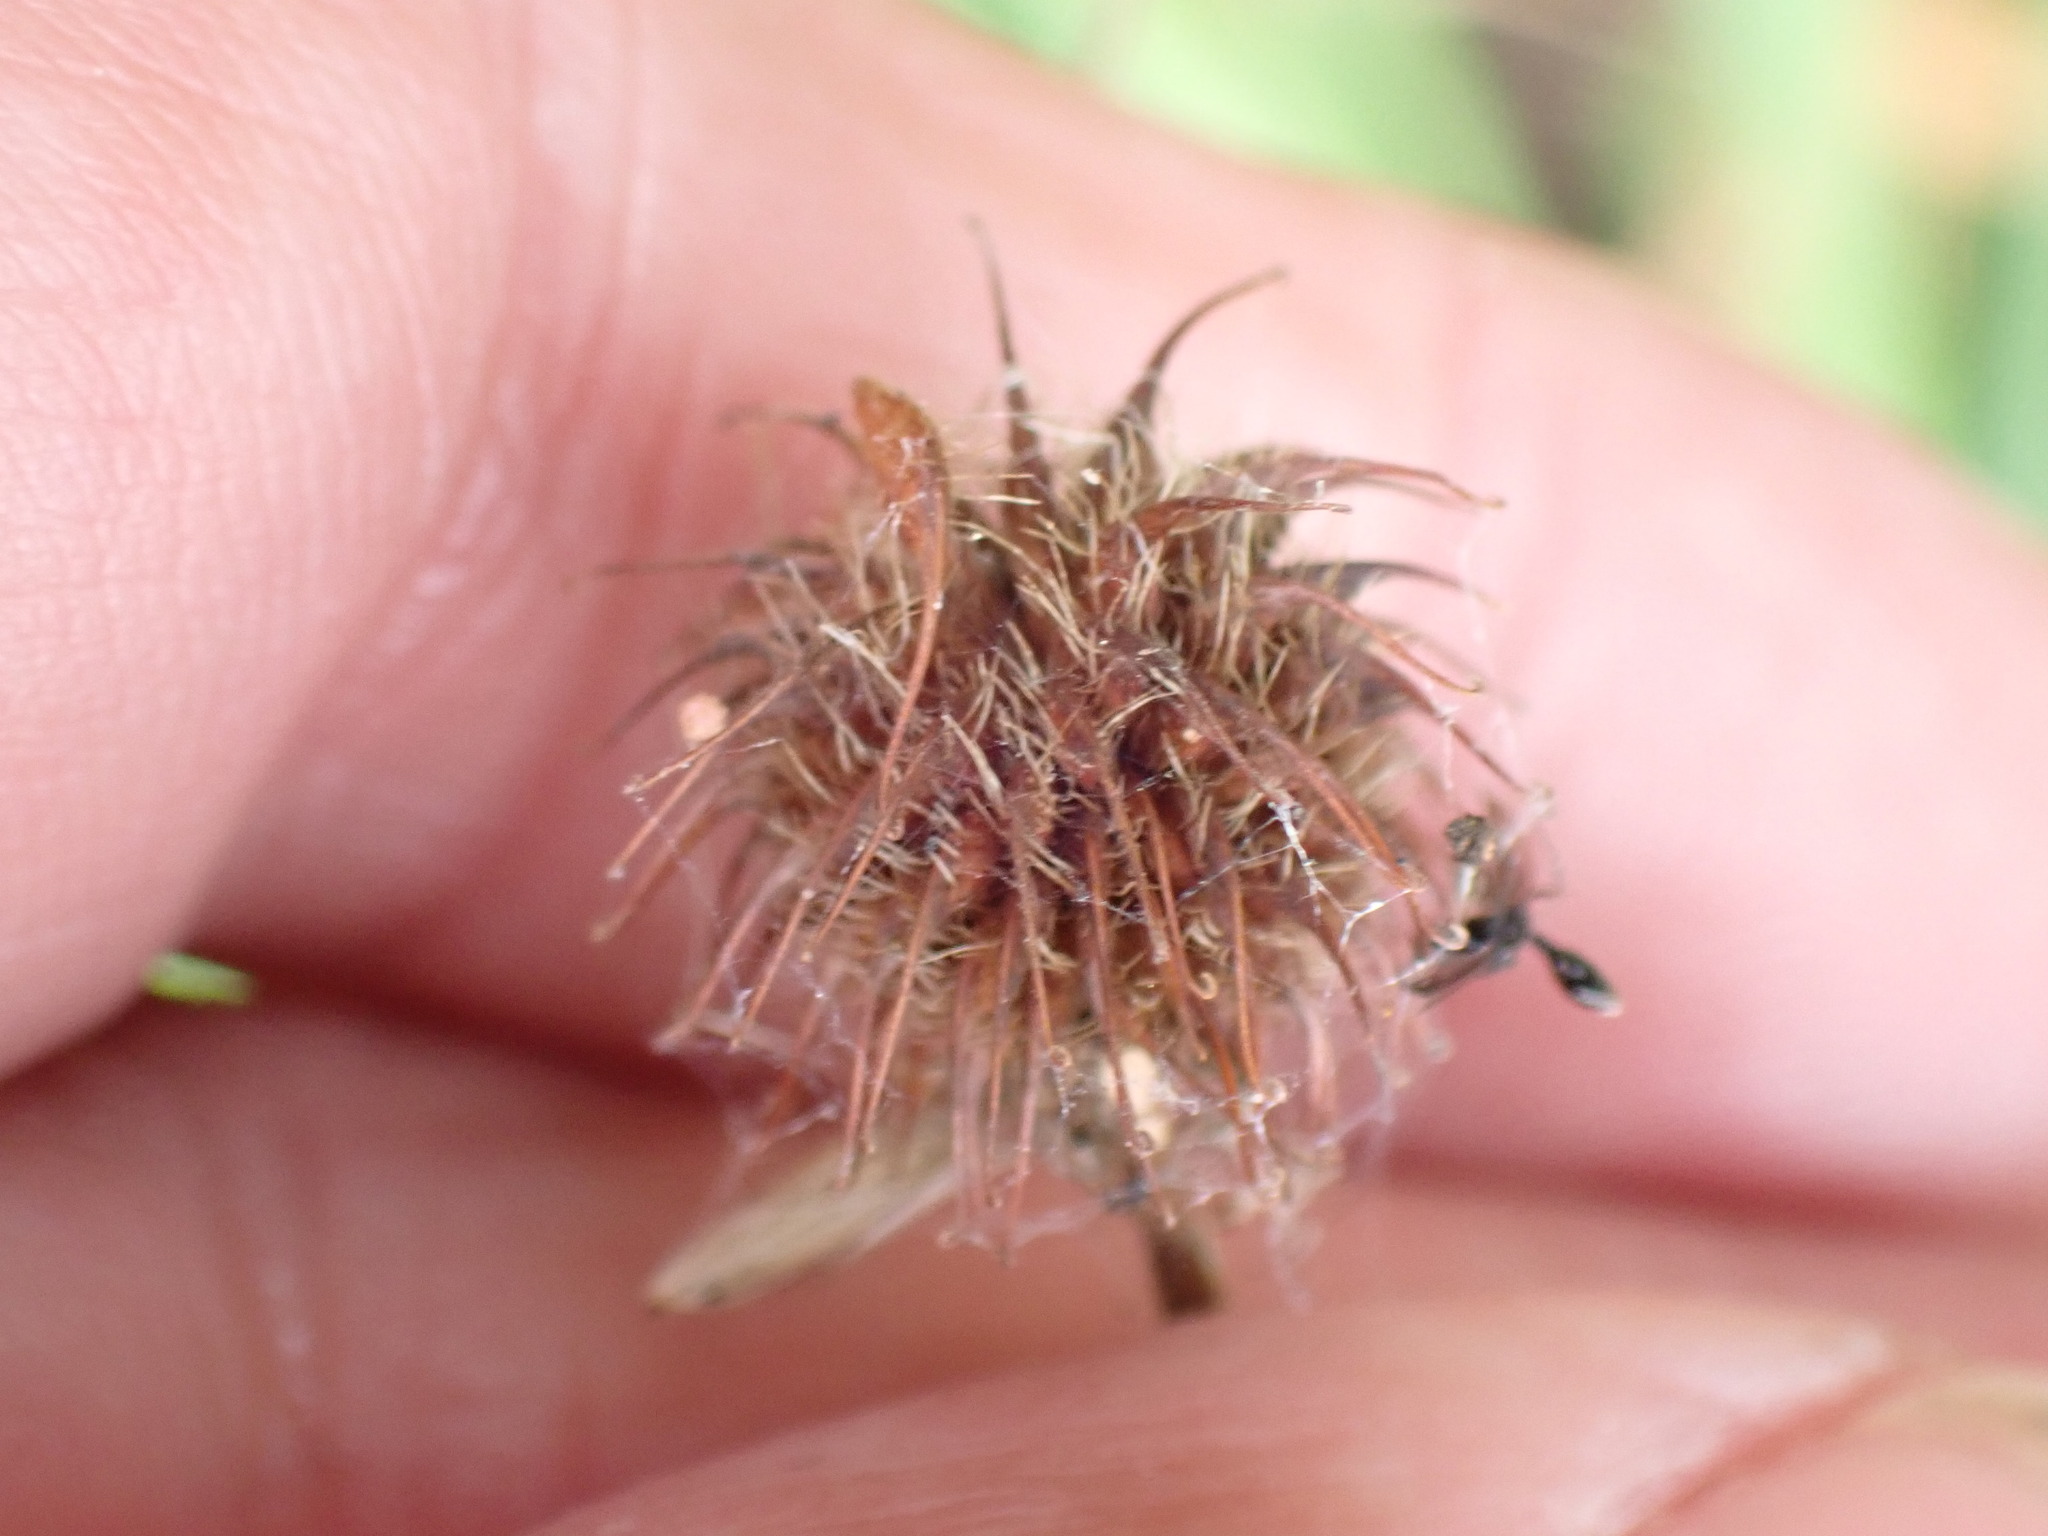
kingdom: Plantae
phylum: Tracheophyta
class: Magnoliopsida
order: Rosales
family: Rosaceae
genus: Geum
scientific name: Geum urbanum
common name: Wood avens
